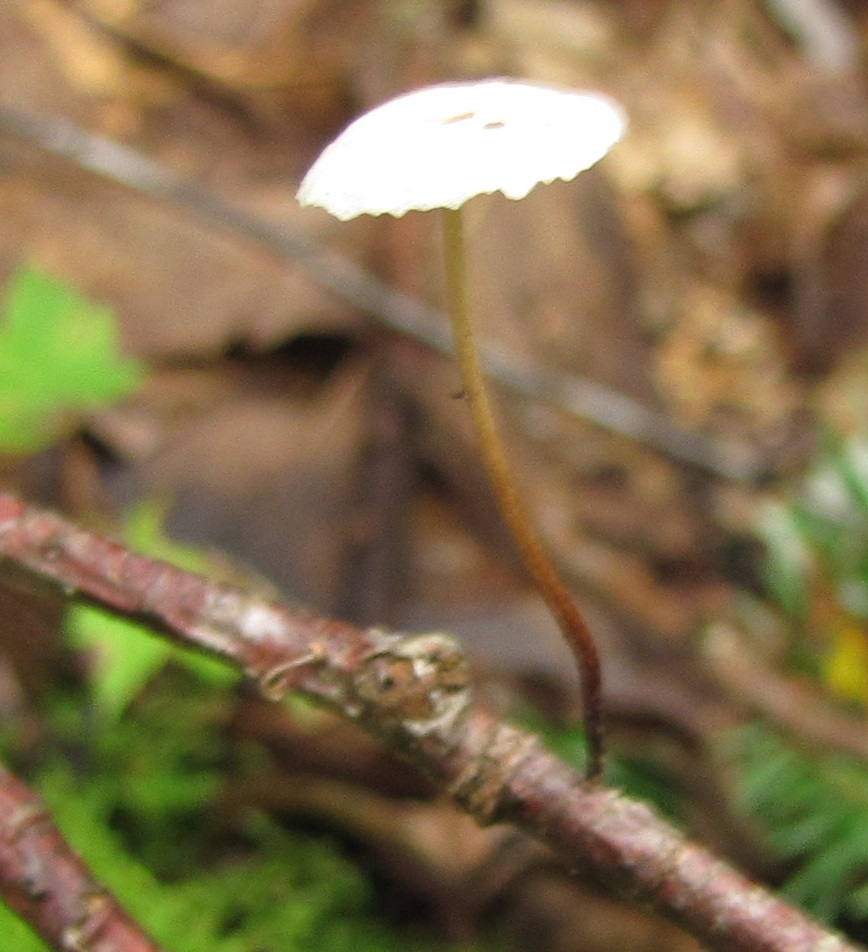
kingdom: Fungi
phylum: Basidiomycota
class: Agaricomycetes
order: Agaricales
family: Omphalotaceae
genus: Marasmiellus
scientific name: Marasmiellus candidus
